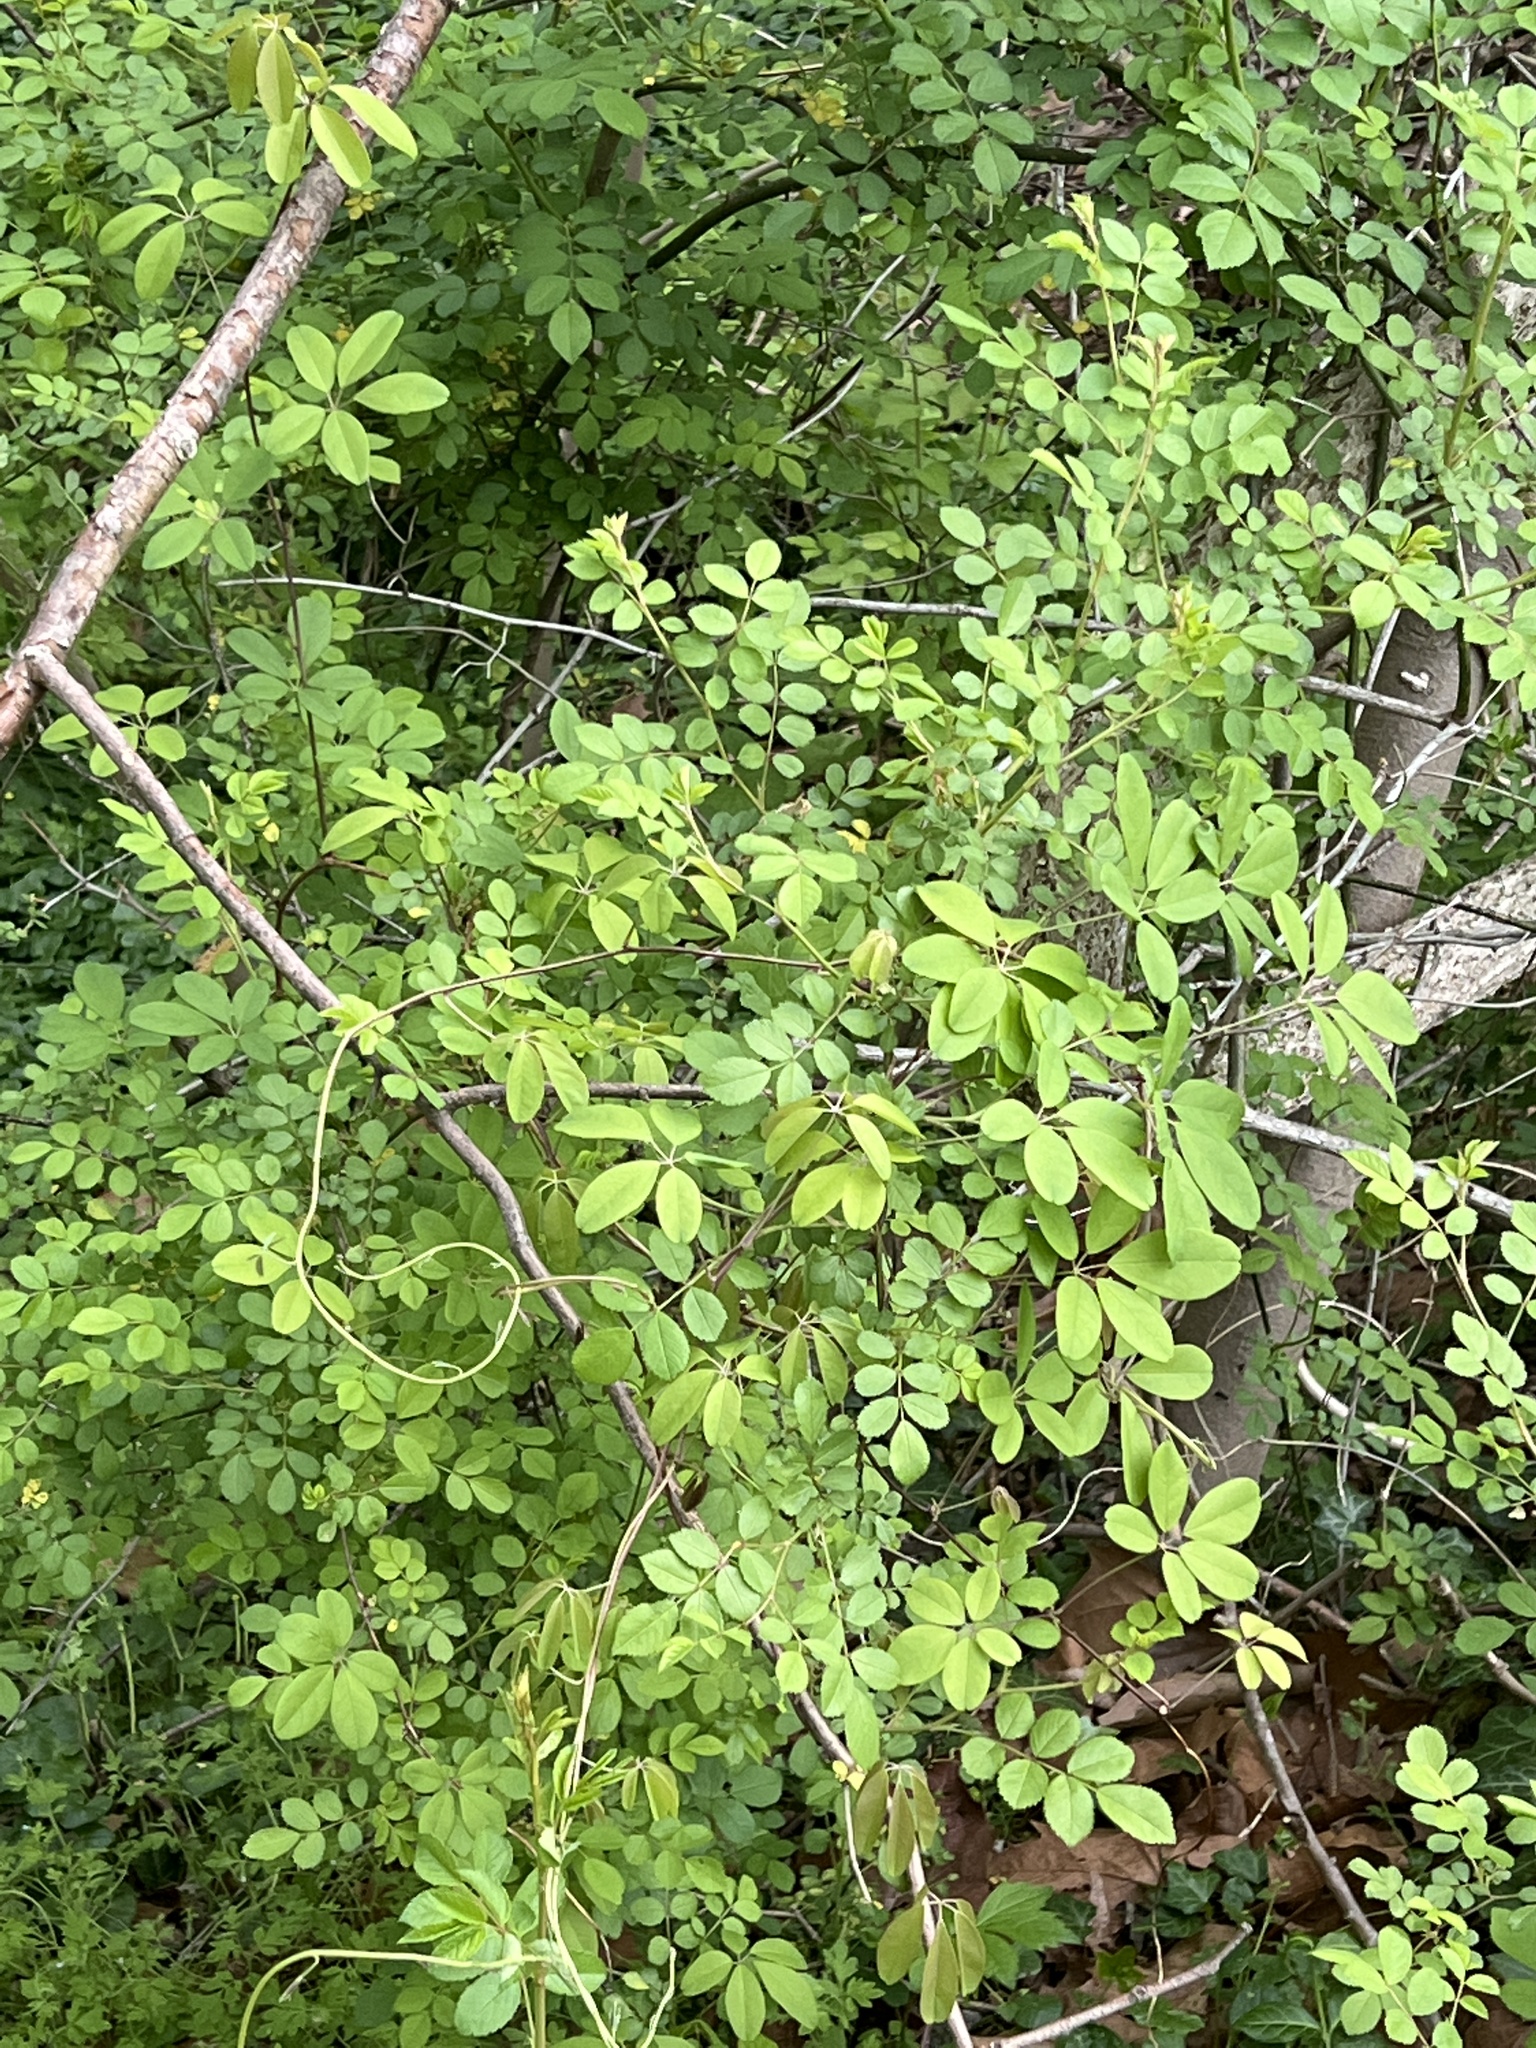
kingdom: Plantae
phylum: Tracheophyta
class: Magnoliopsida
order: Ranunculales
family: Lardizabalaceae
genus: Akebia
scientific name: Akebia quinata
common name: Five-leaf akebia
